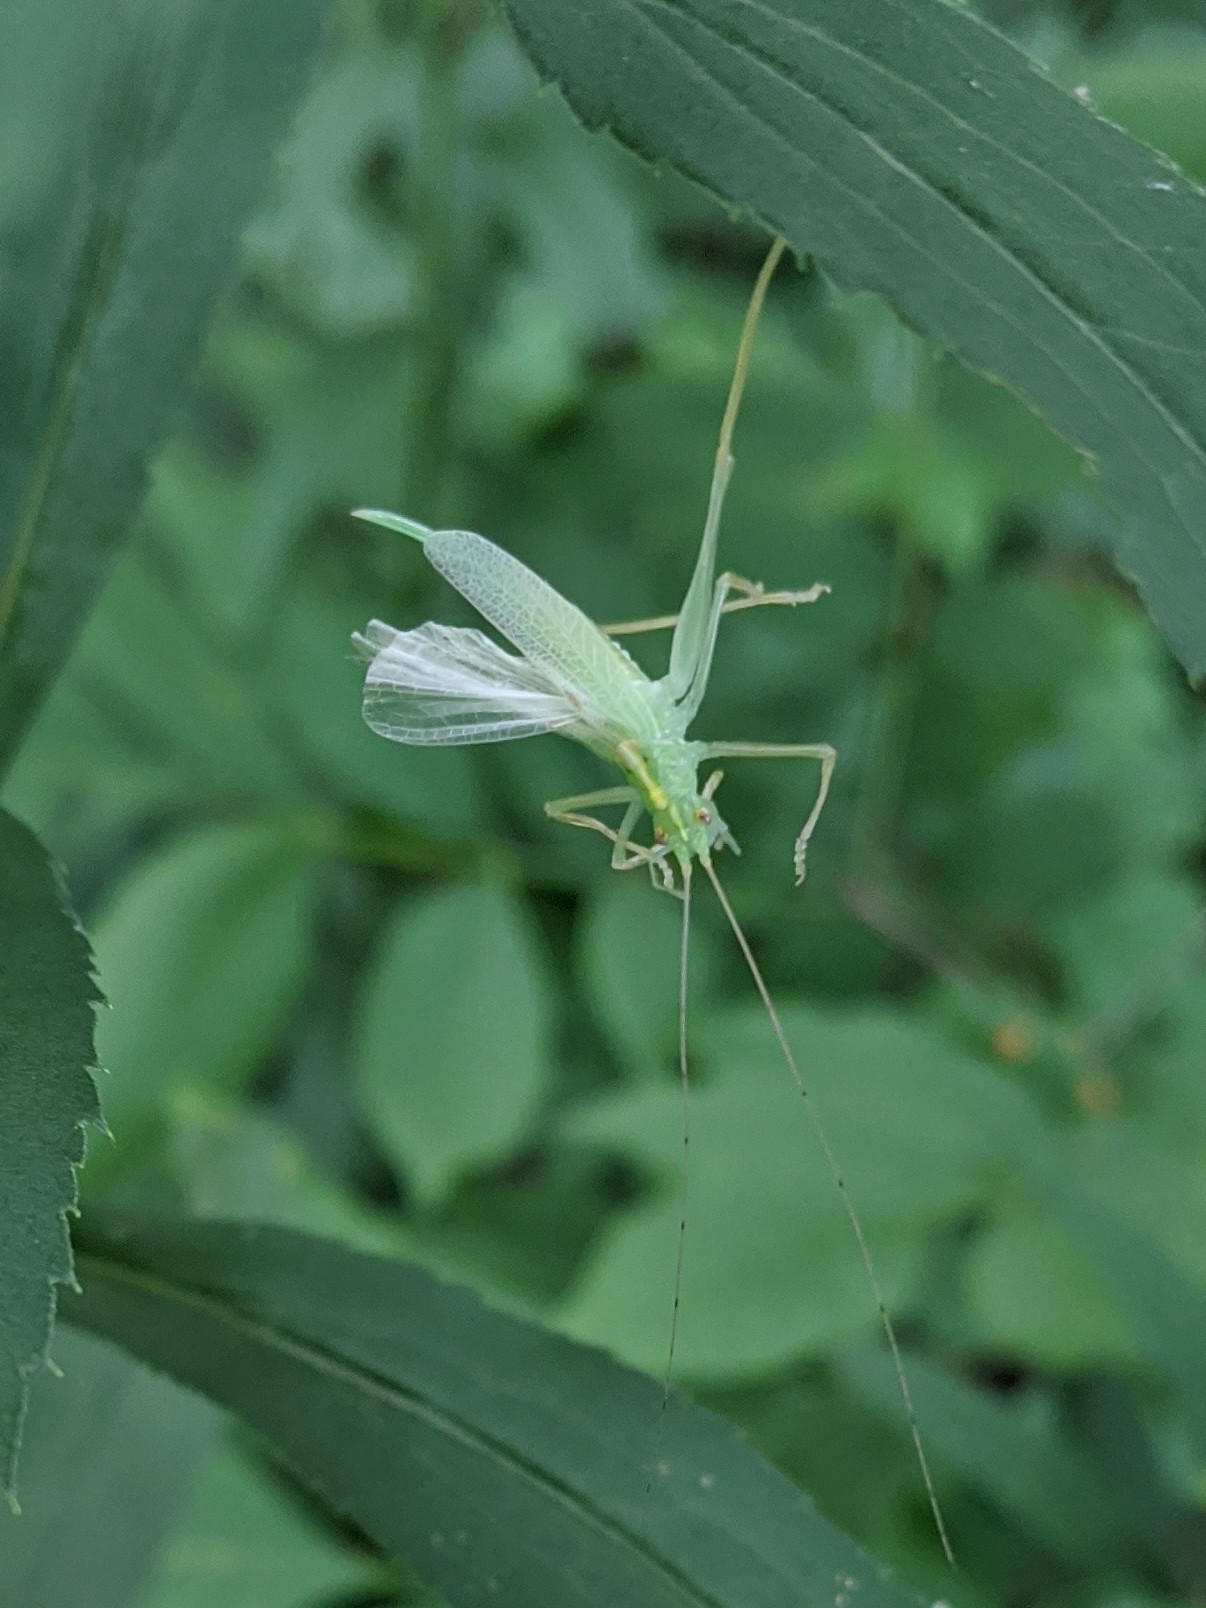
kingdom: Animalia
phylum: Arthropoda
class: Insecta
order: Orthoptera
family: Tettigoniidae
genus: Meconema
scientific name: Meconema thalassinum
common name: Oak bush-cricket
